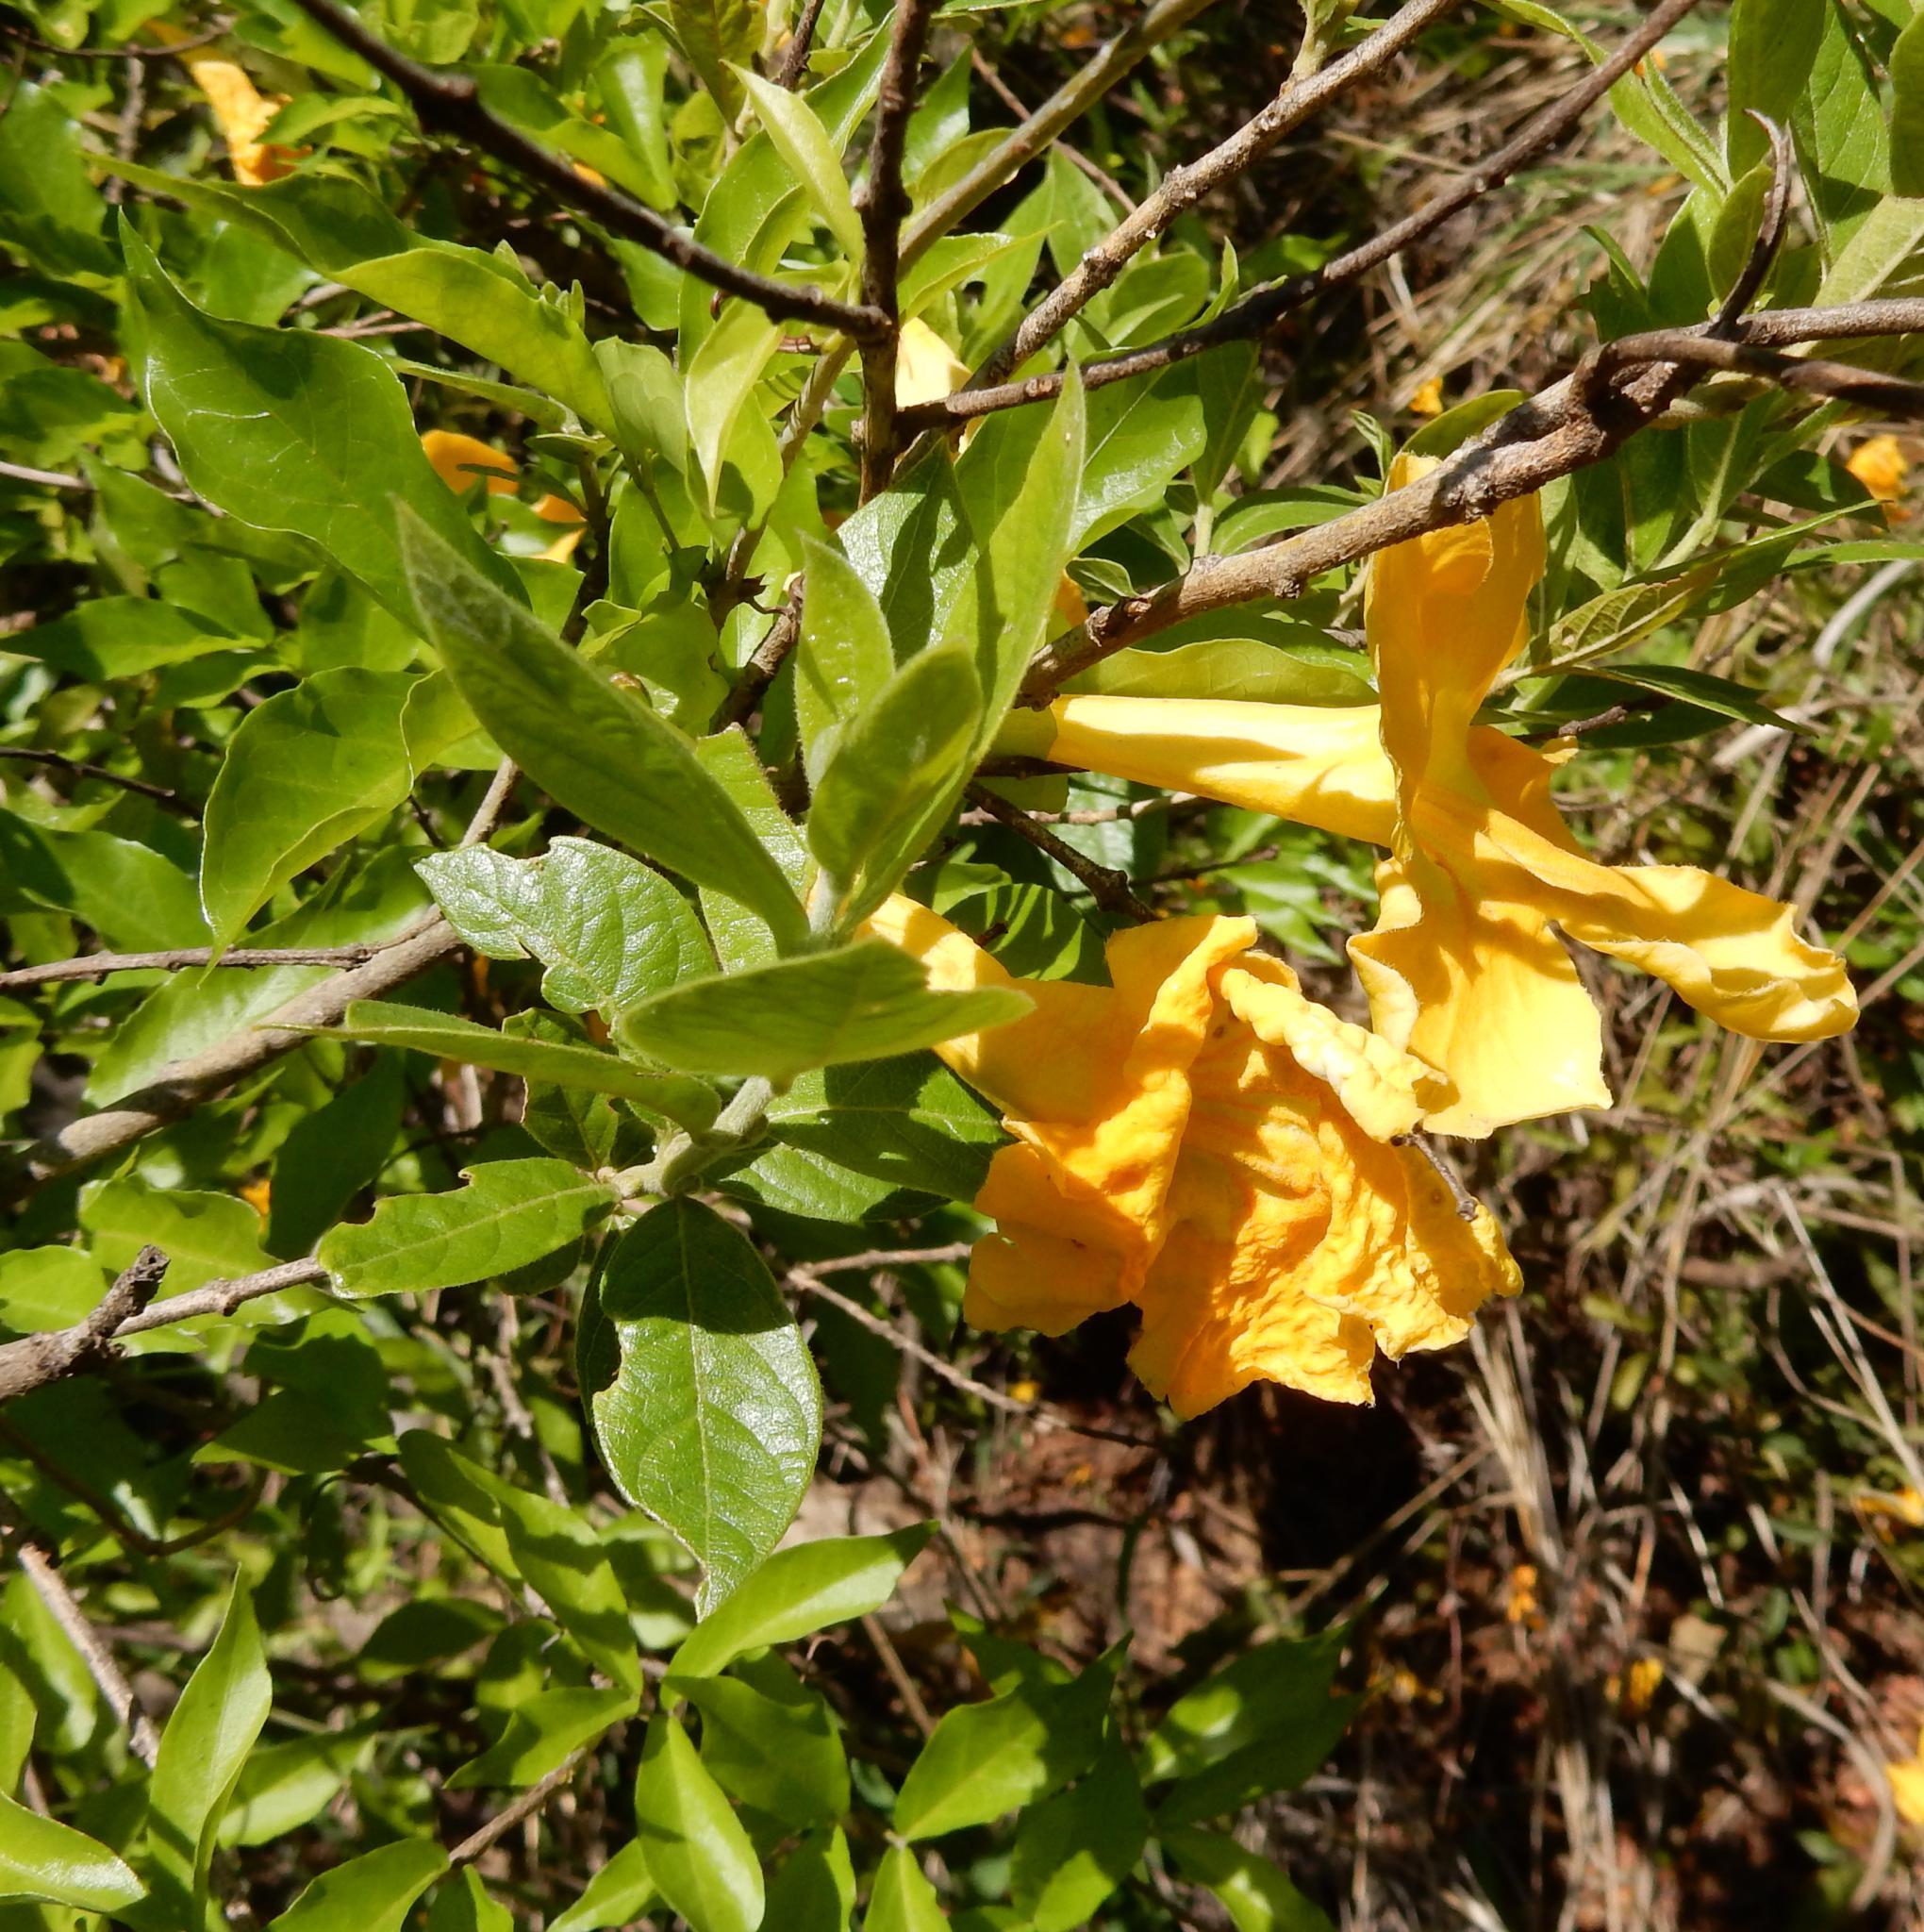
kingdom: Plantae
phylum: Tracheophyta
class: Magnoliopsida
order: Lamiales
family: Bignoniaceae
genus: Dolichandra
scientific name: Dolichandra unguis-cati
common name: Catclaw vine
